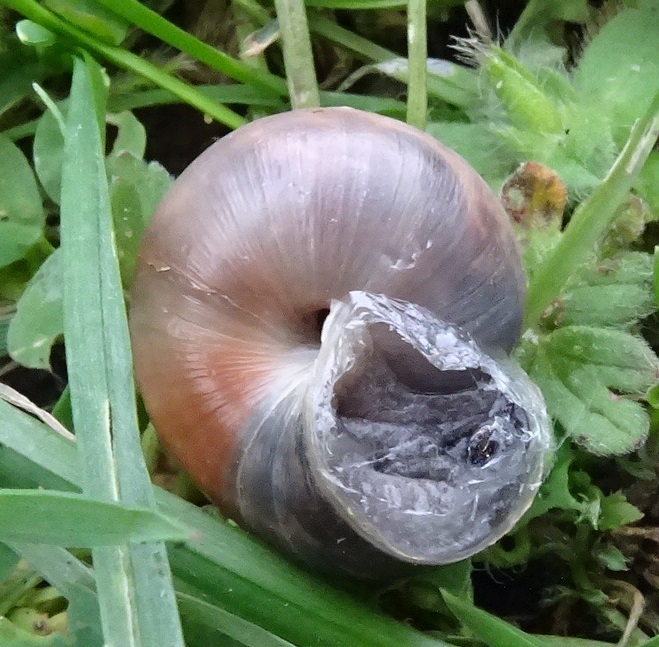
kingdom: Animalia
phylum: Mollusca
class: Gastropoda
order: Stylommatophora
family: Hygromiidae
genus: Monacha
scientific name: Monacha cantiana
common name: Kentish snail
